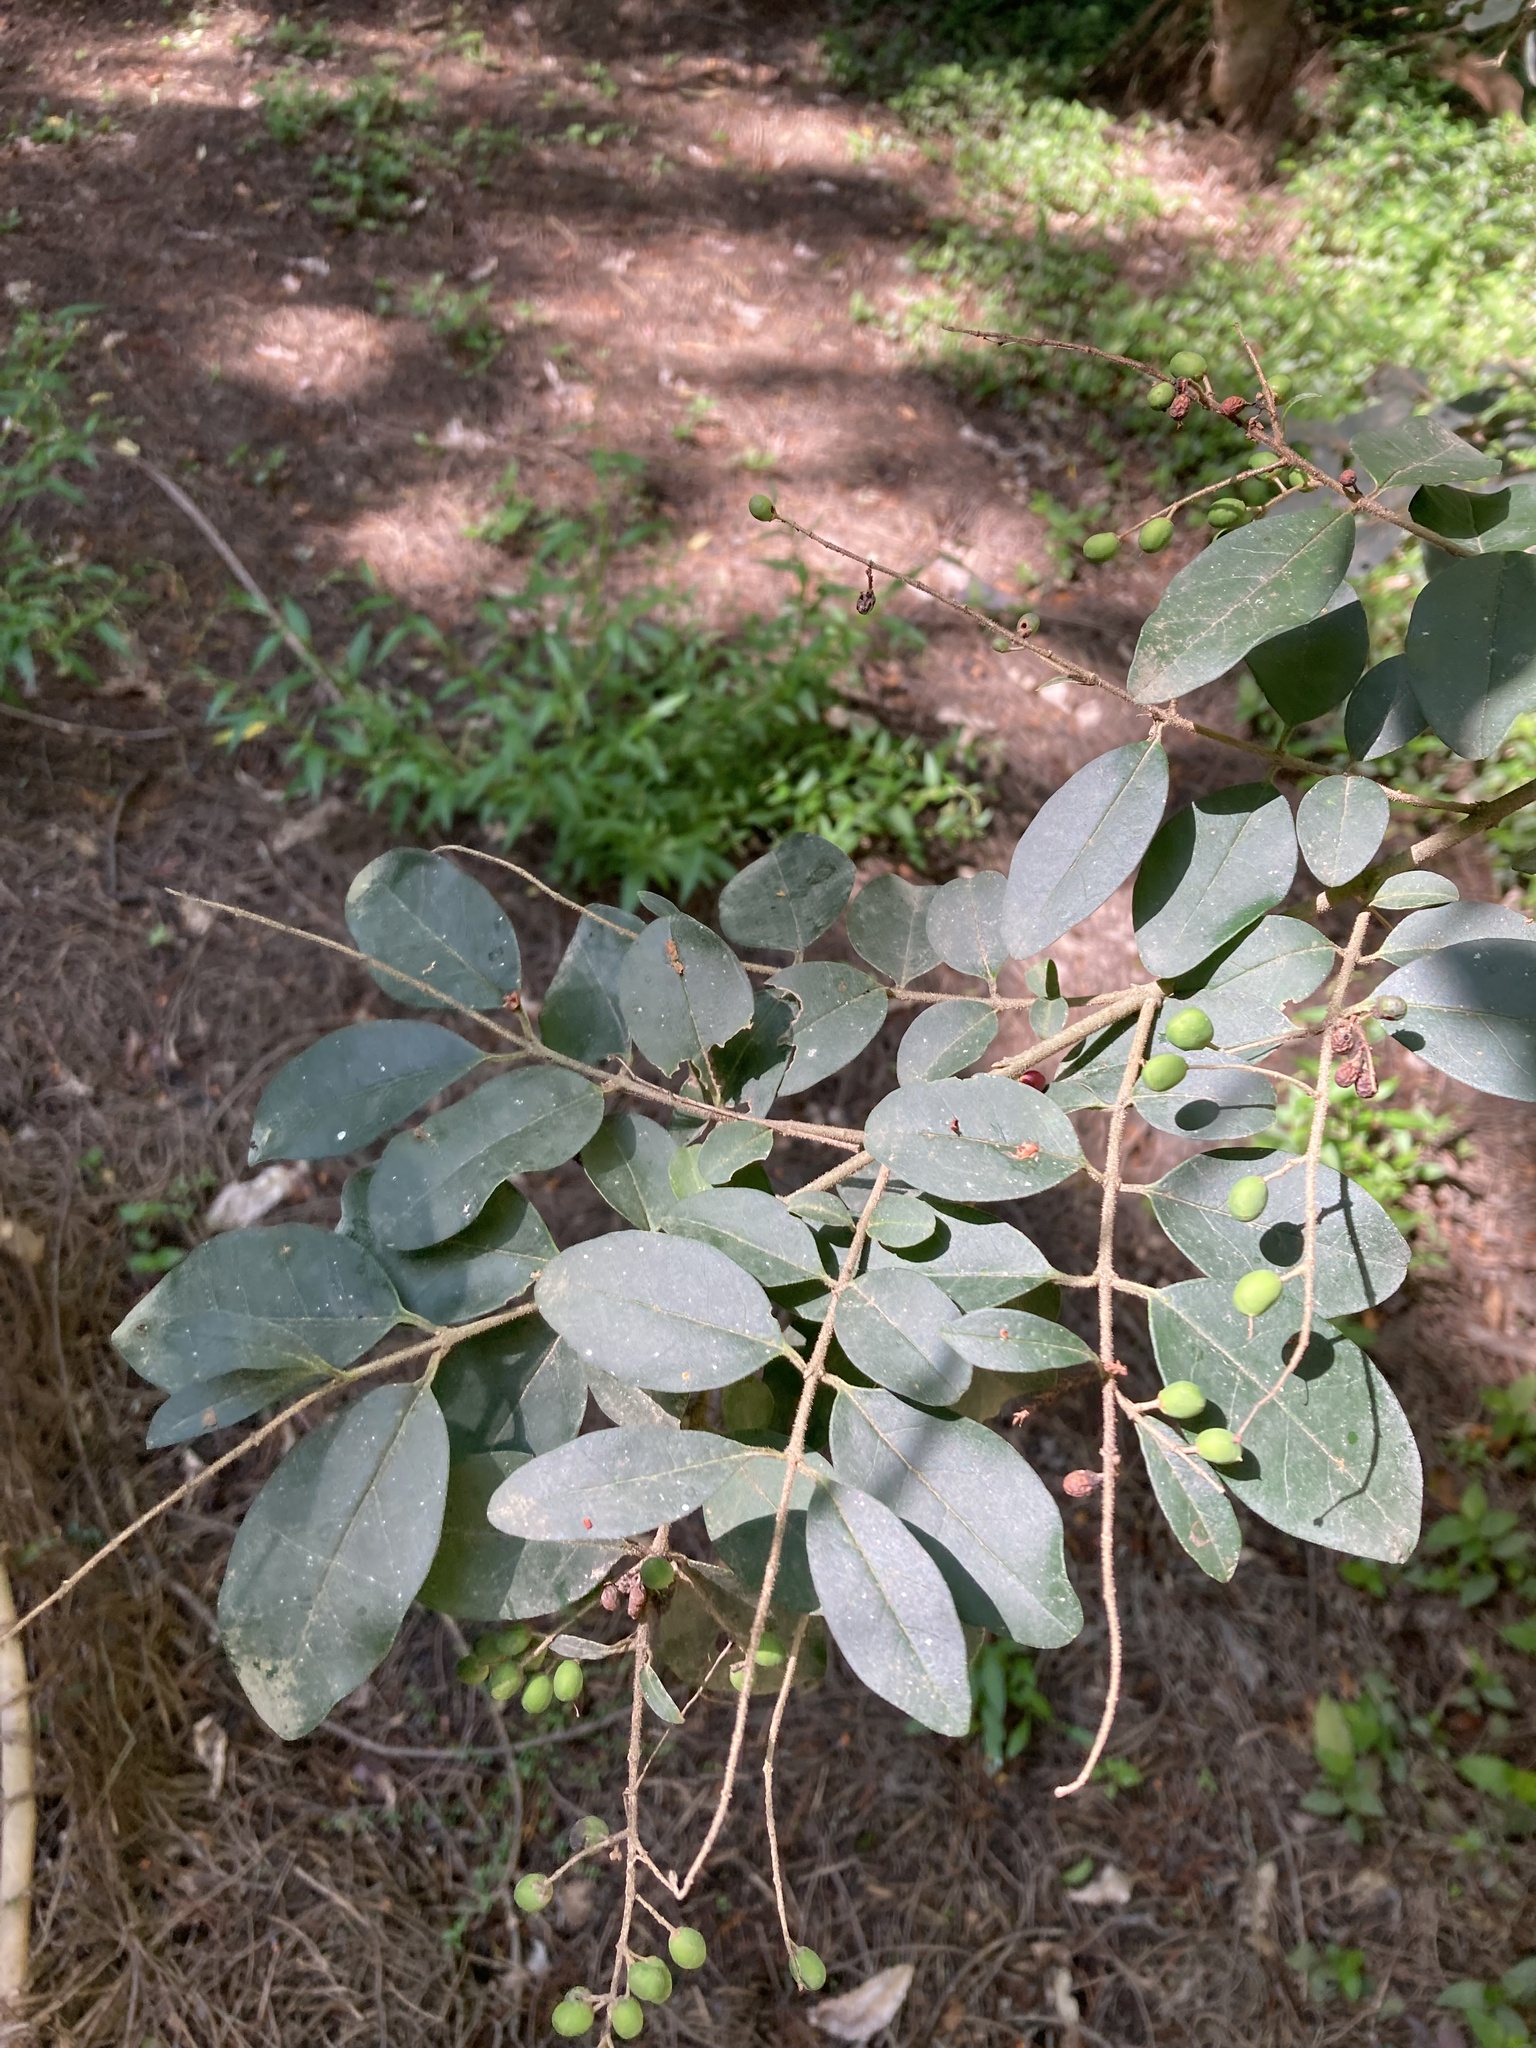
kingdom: Plantae
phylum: Tracheophyta
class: Magnoliopsida
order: Lamiales
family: Oleaceae
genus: Ligustrum
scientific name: Ligustrum sinense
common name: Chinese privet
